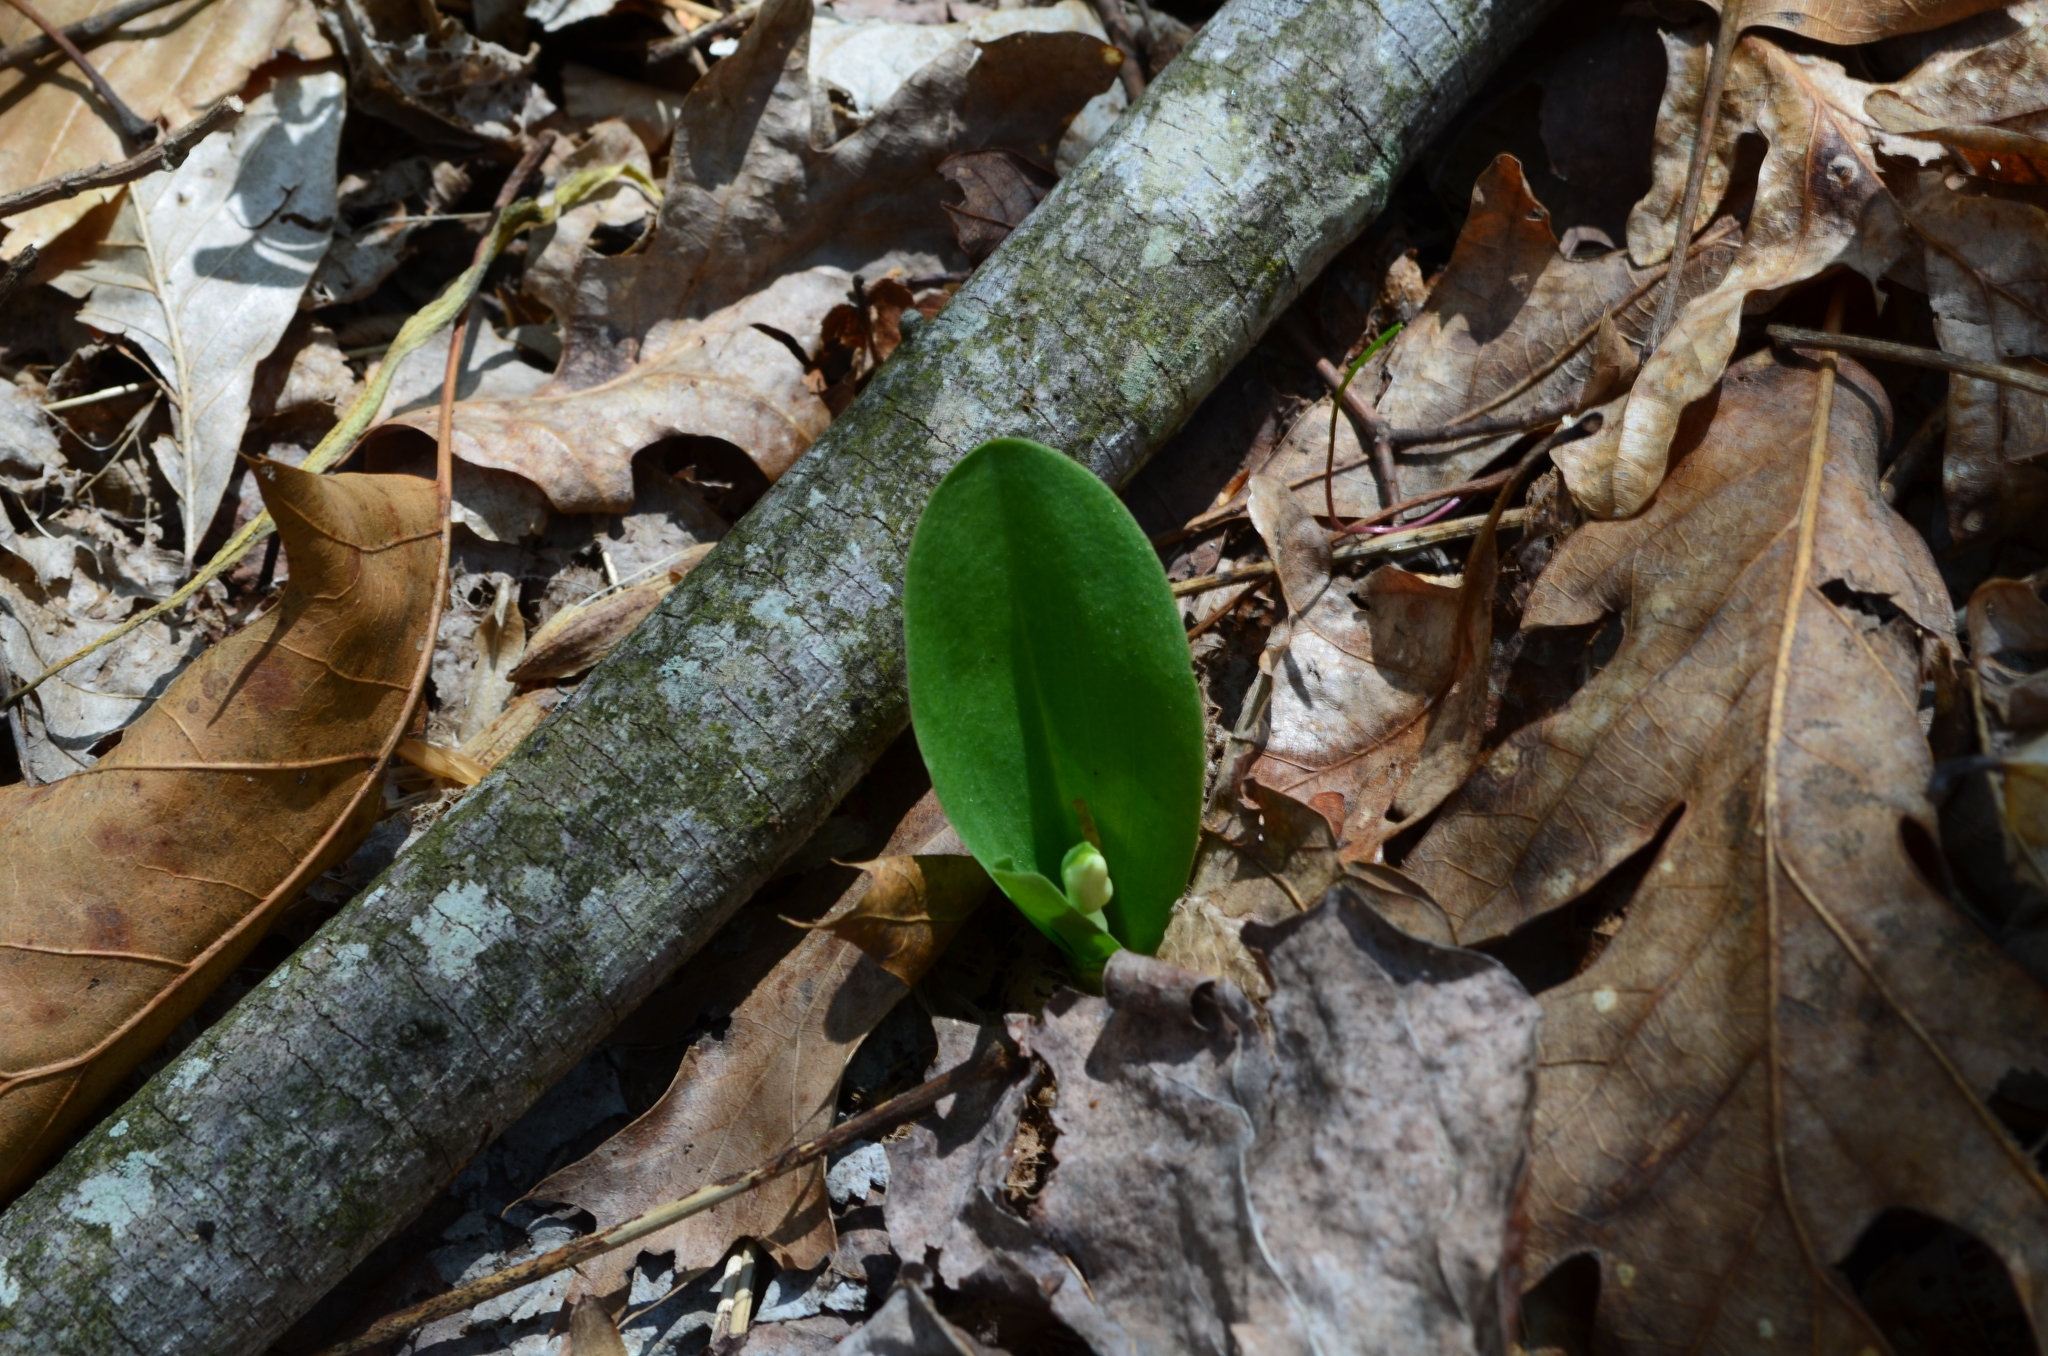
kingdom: Plantae
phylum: Tracheophyta
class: Liliopsida
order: Asparagales
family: Orchidaceae
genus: Galearis
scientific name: Galearis spectabilis
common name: Purple-hooded orchis
